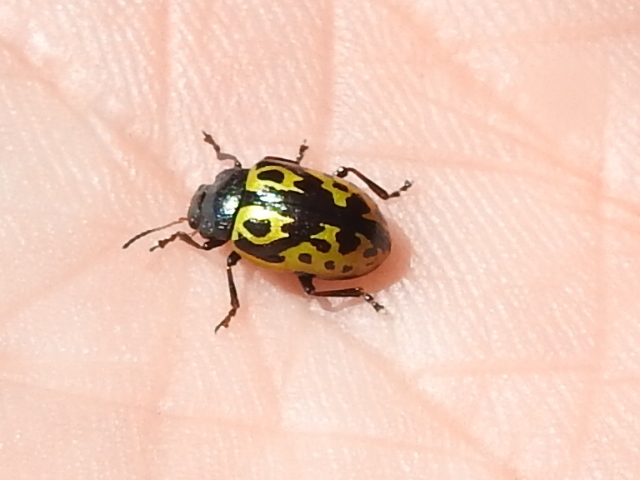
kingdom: Animalia
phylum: Arthropoda
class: Insecta
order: Coleoptera
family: Chrysomelidae
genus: Calligrapha
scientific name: Calligrapha
